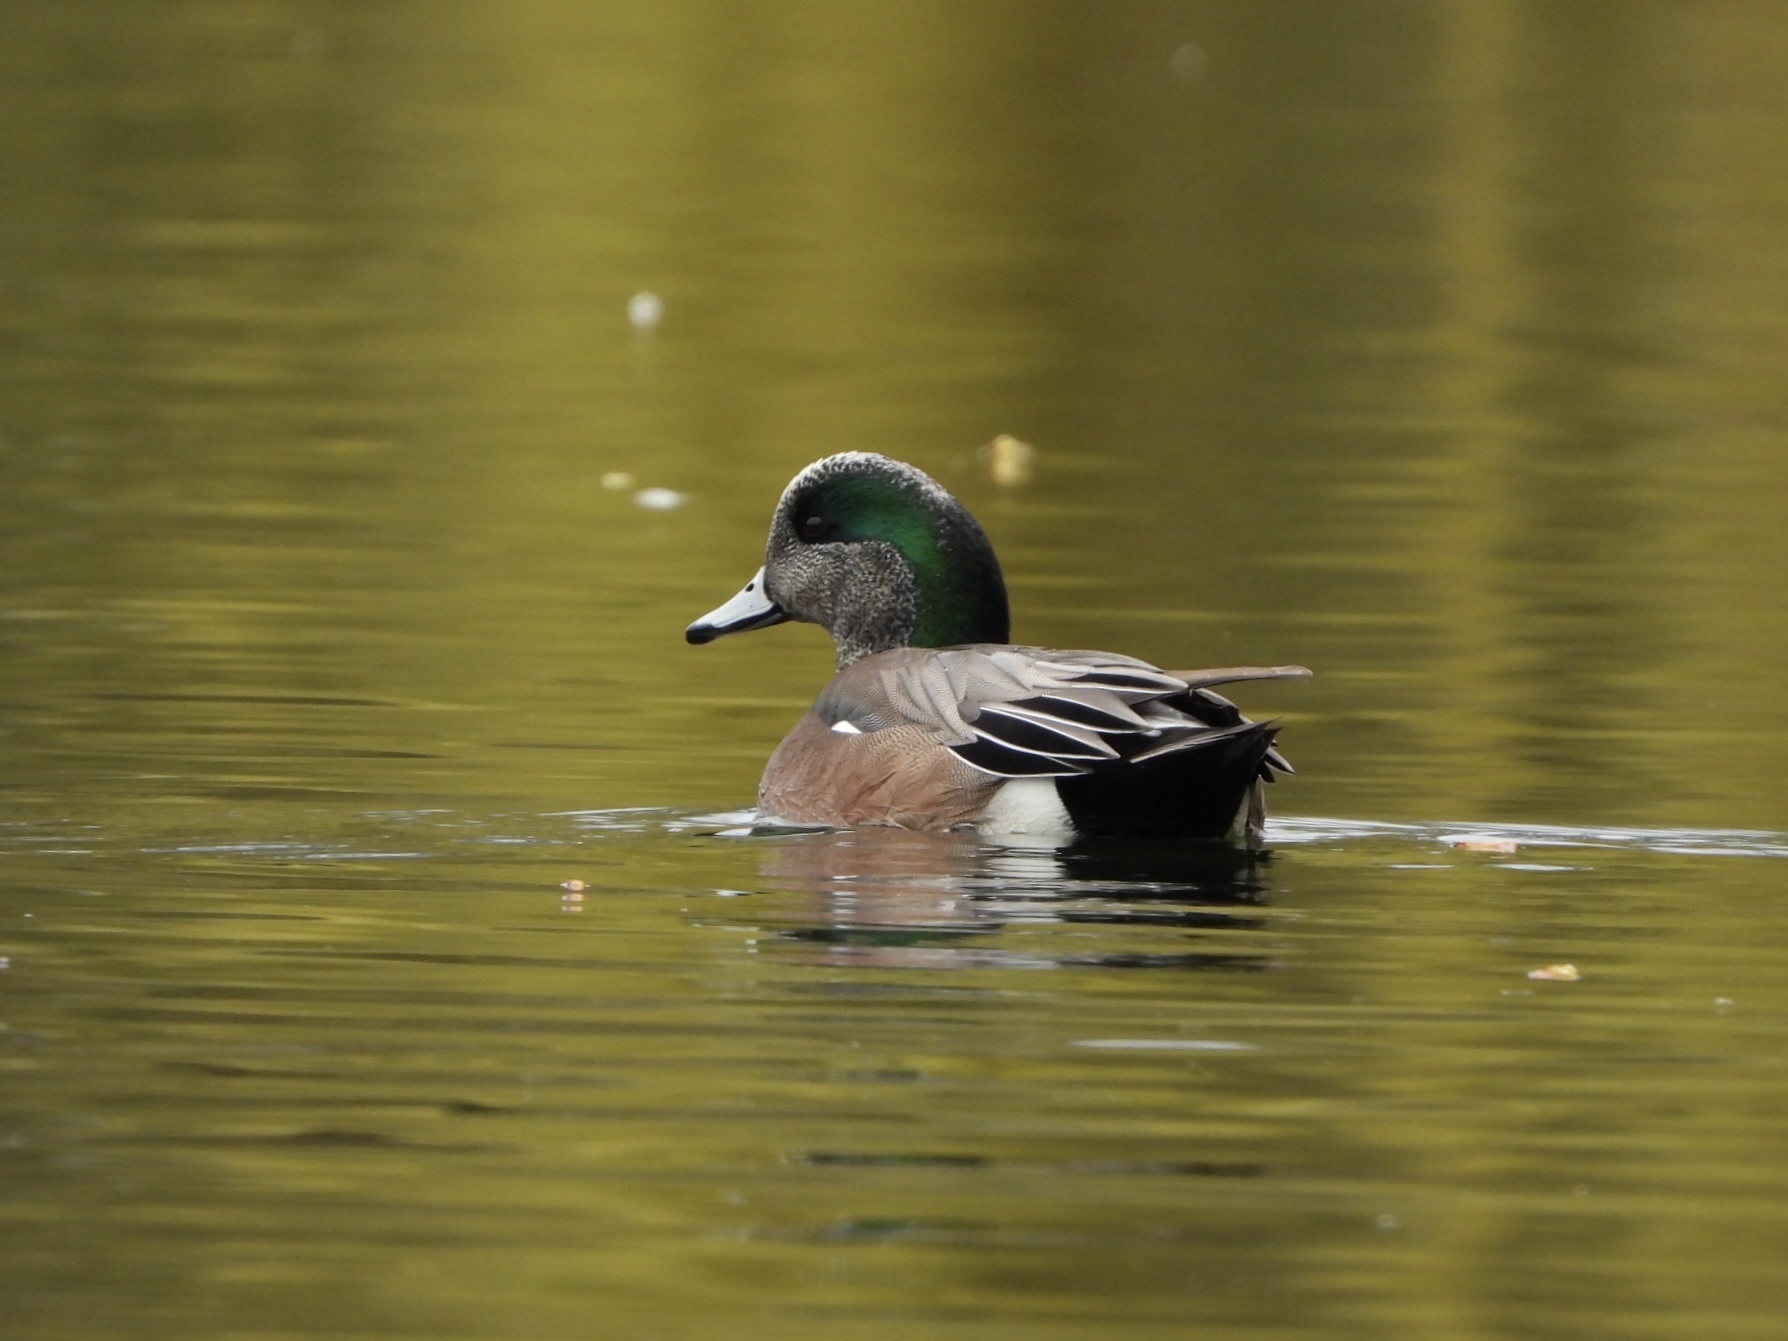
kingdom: Animalia
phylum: Chordata
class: Aves
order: Anseriformes
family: Anatidae
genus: Mareca
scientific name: Mareca americana
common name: American wigeon
